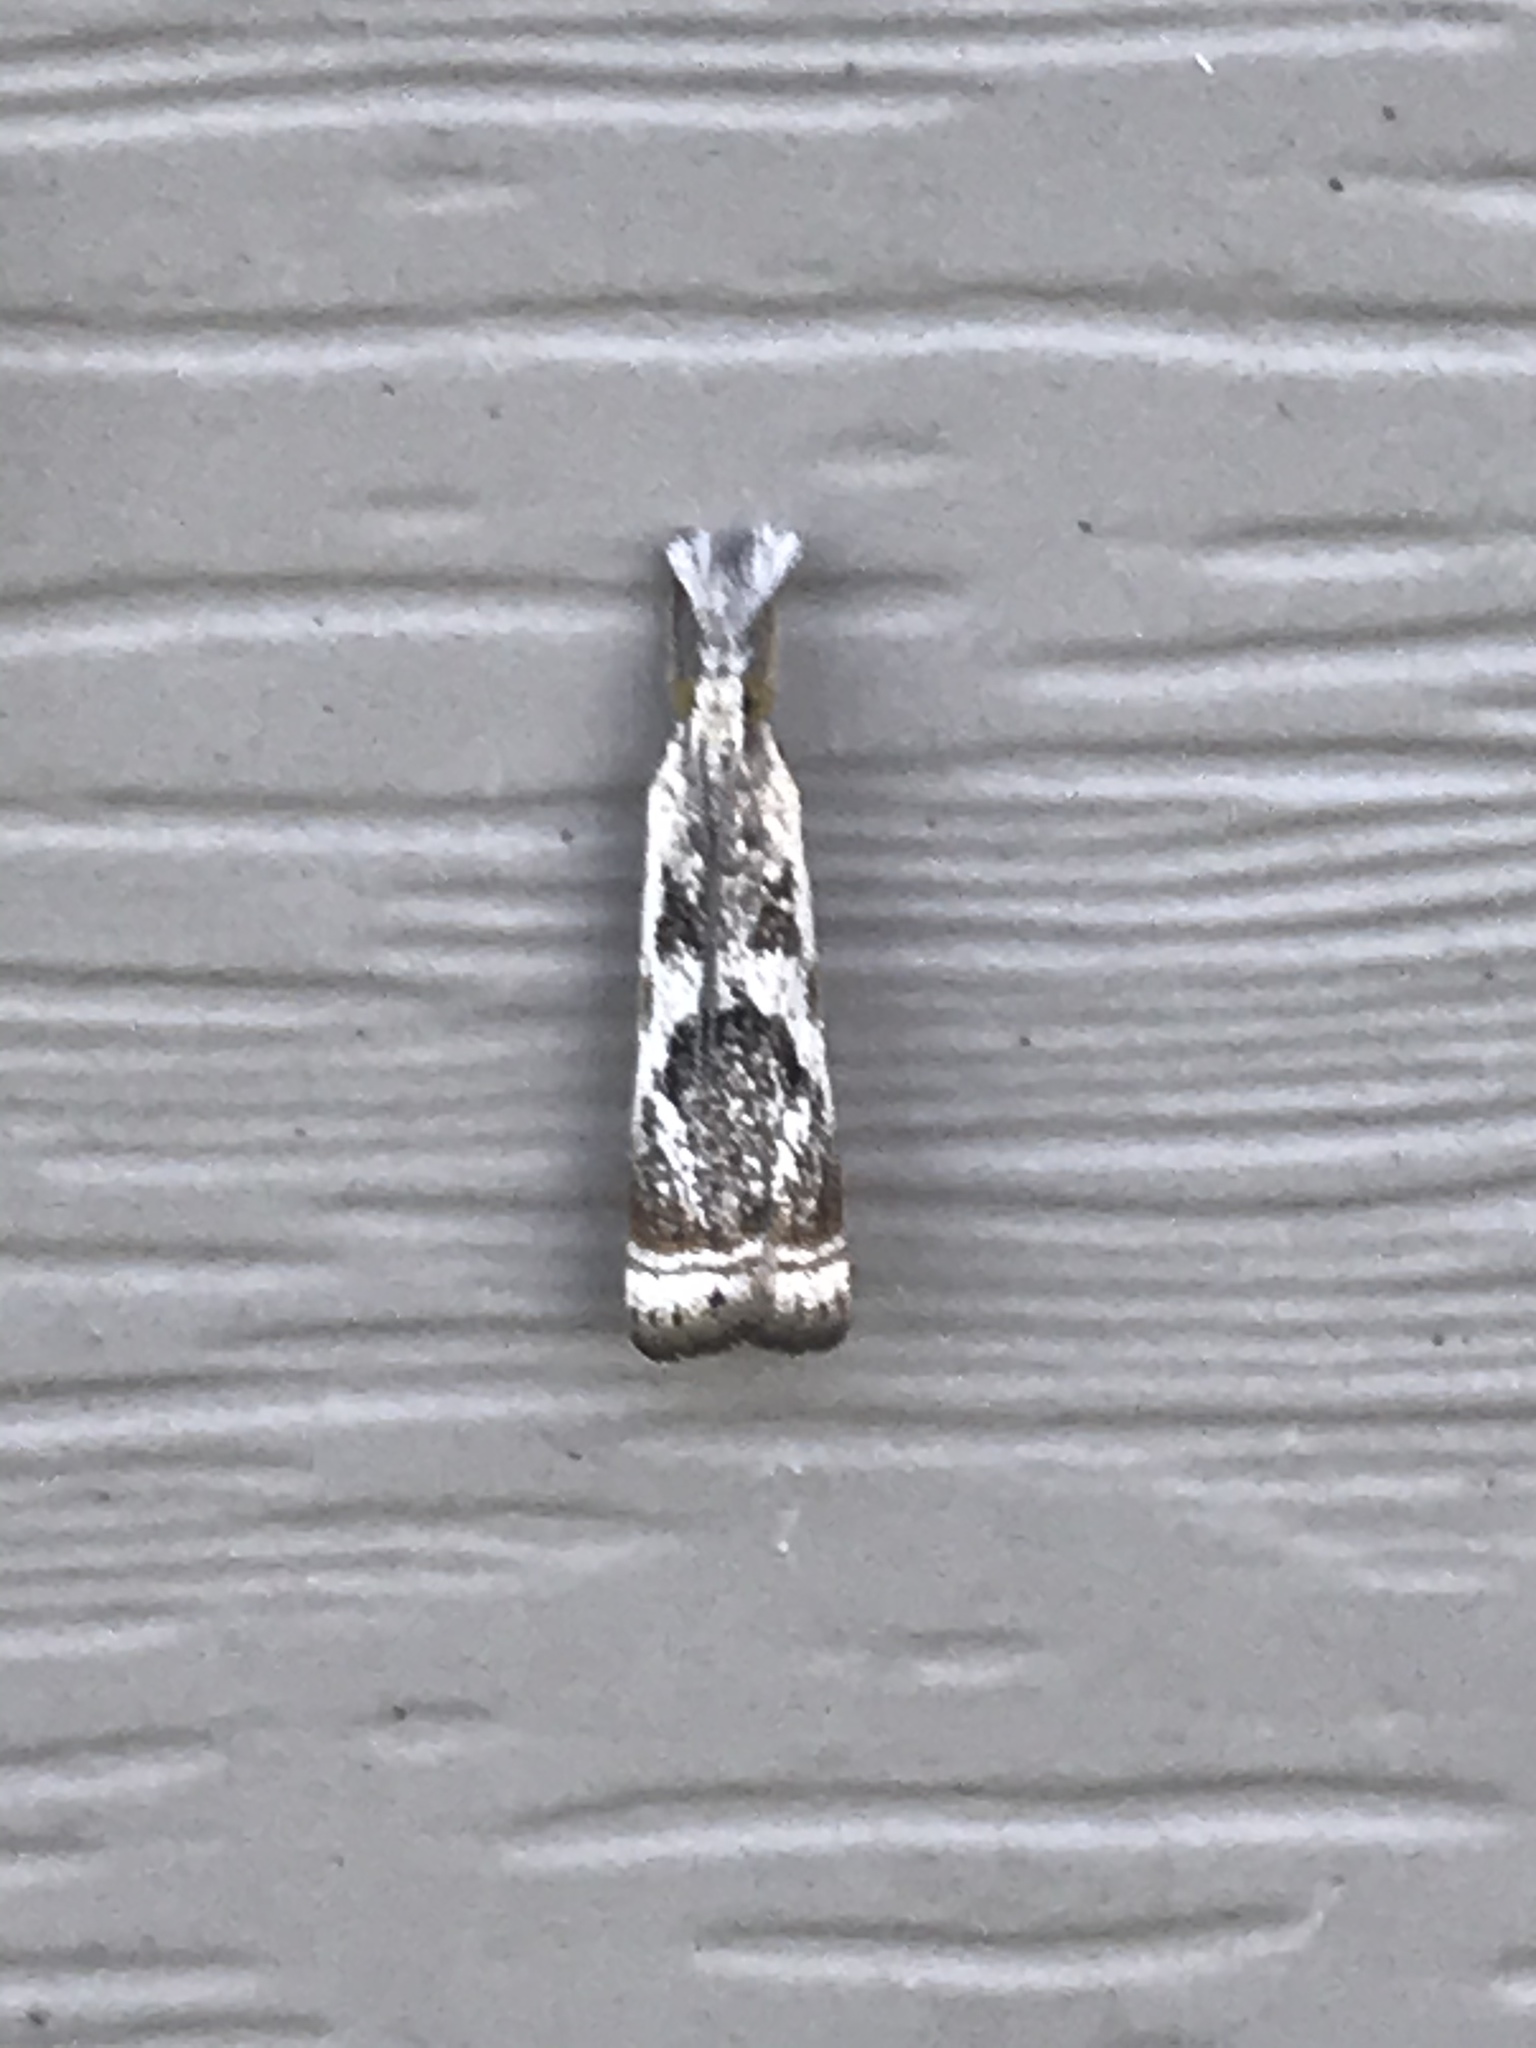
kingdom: Animalia
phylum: Arthropoda
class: Insecta
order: Lepidoptera
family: Crambidae
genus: Microcrambus
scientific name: Microcrambus elegans
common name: Elegant grass-veneer
